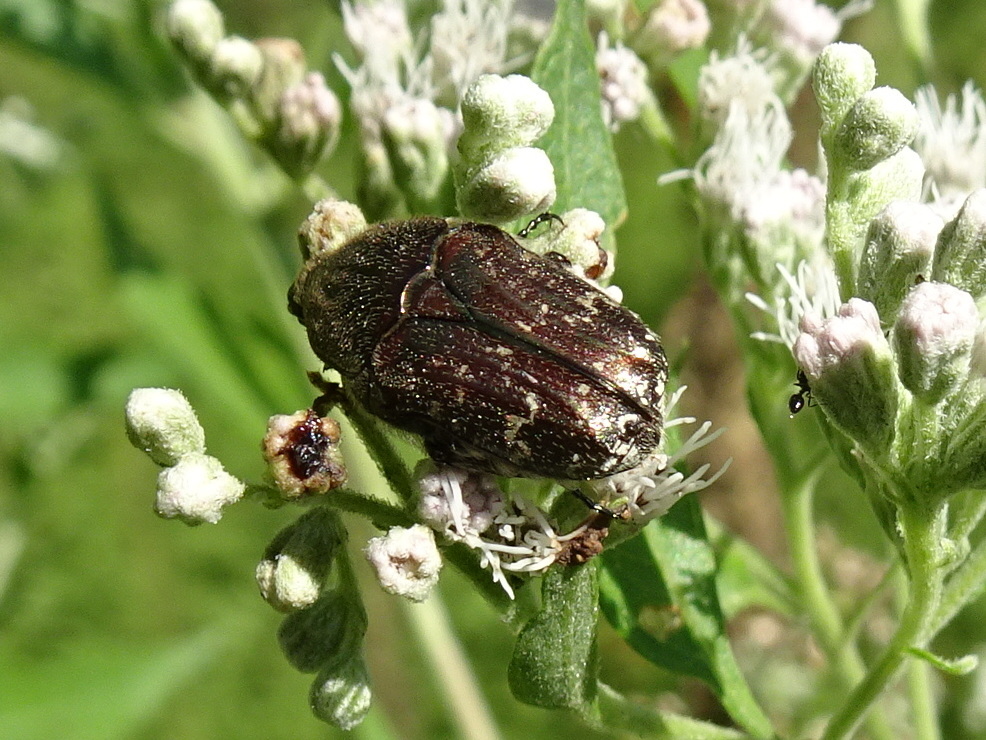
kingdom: Animalia
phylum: Arthropoda
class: Insecta
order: Coleoptera
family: Scarabaeidae
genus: Euphoria
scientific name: Euphoria sepulcralis
